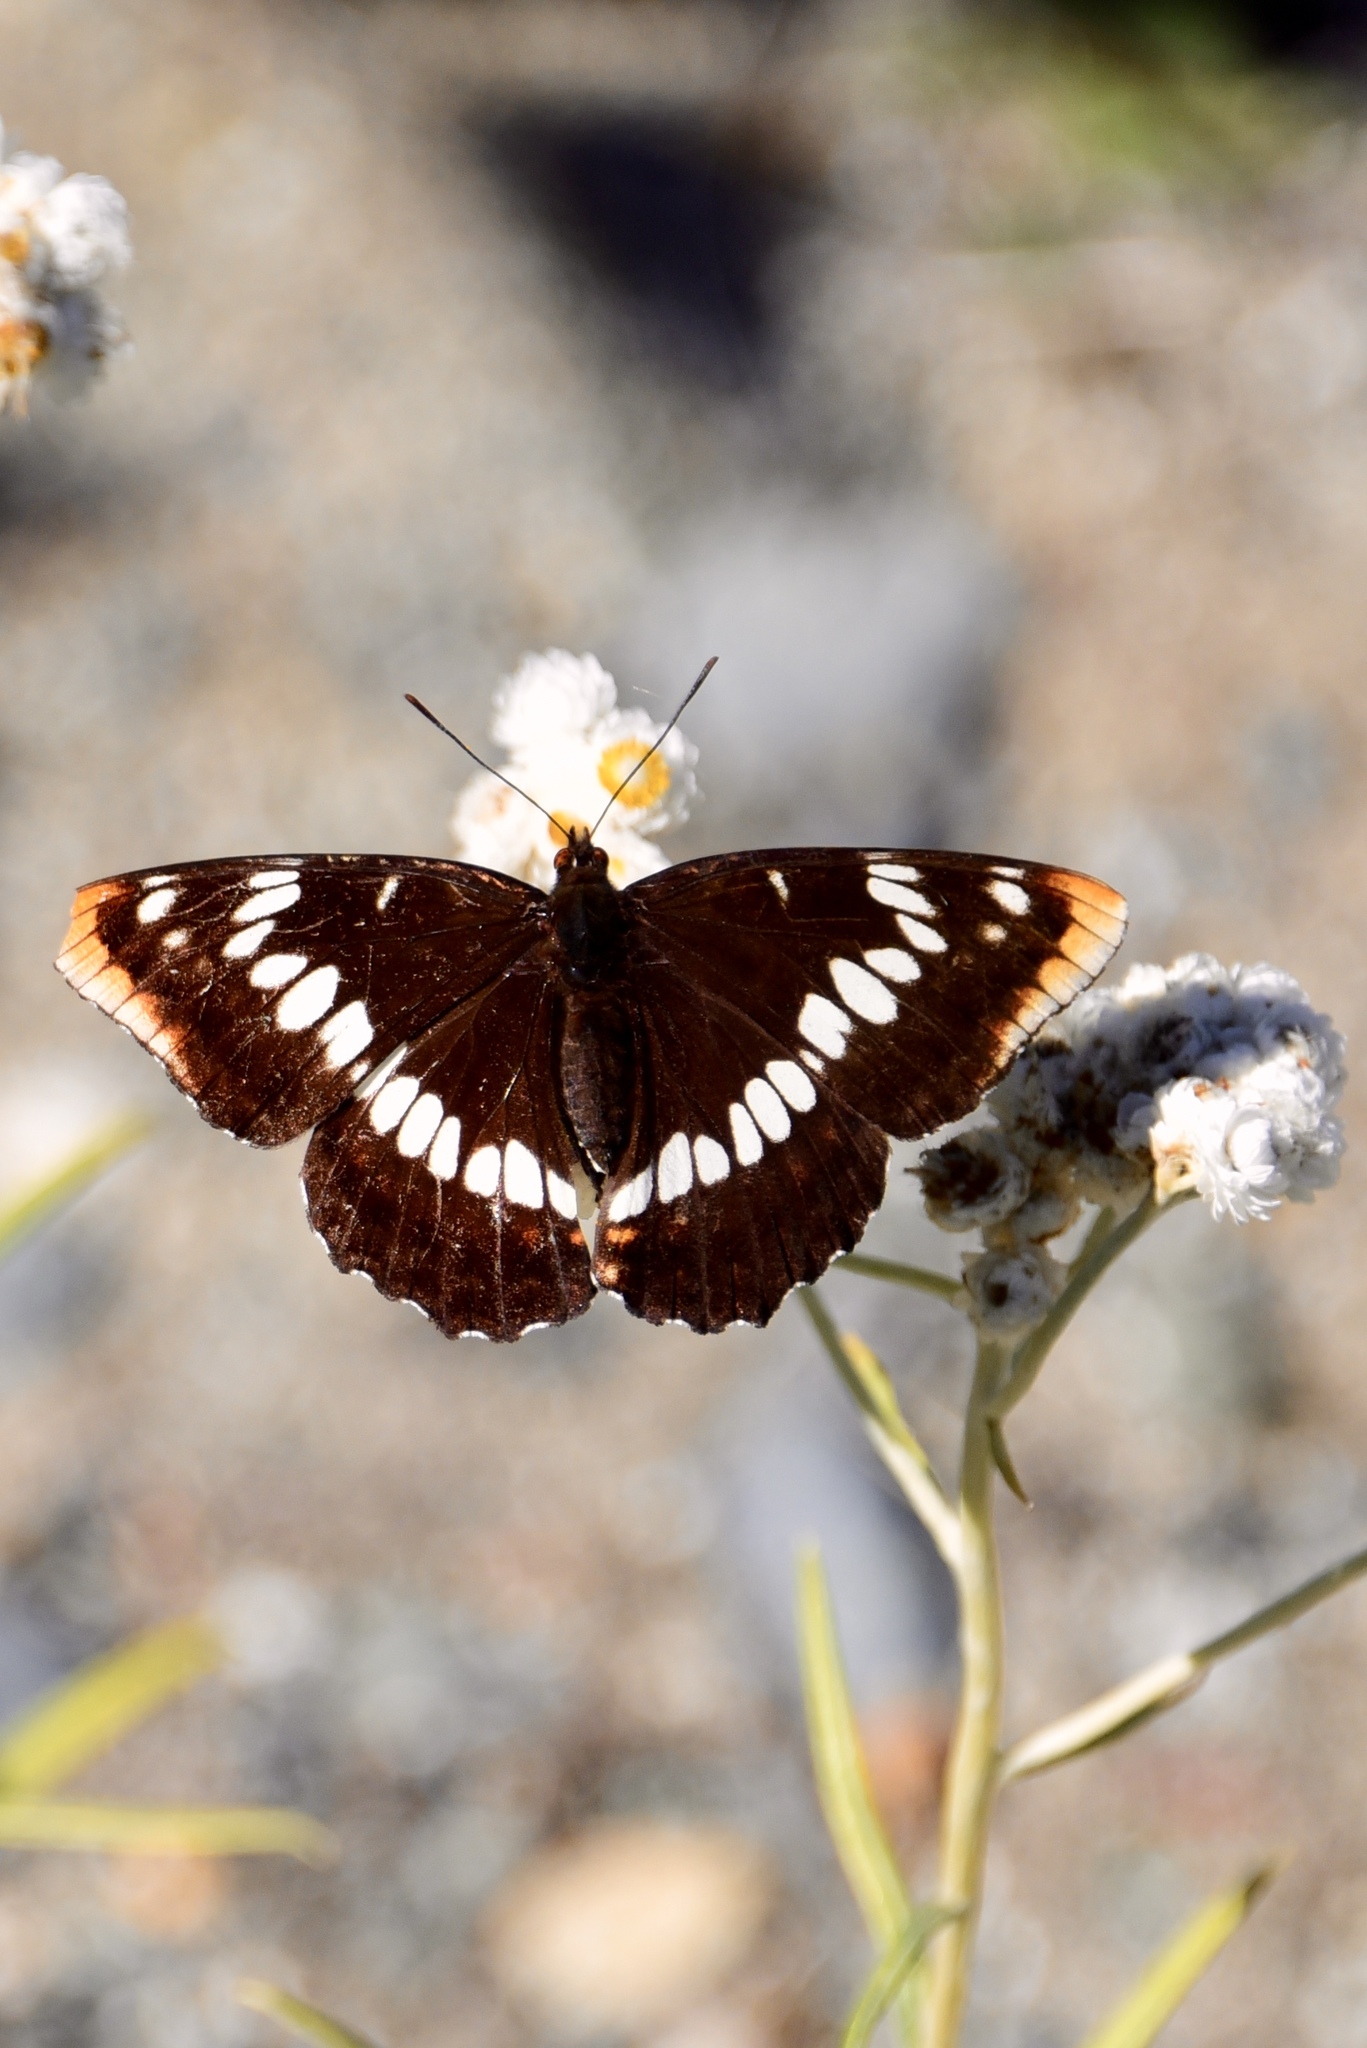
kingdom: Animalia
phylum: Arthropoda
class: Insecta
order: Lepidoptera
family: Nymphalidae
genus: Limenitis
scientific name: Limenitis lorquini
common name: Lorquin's admiral
